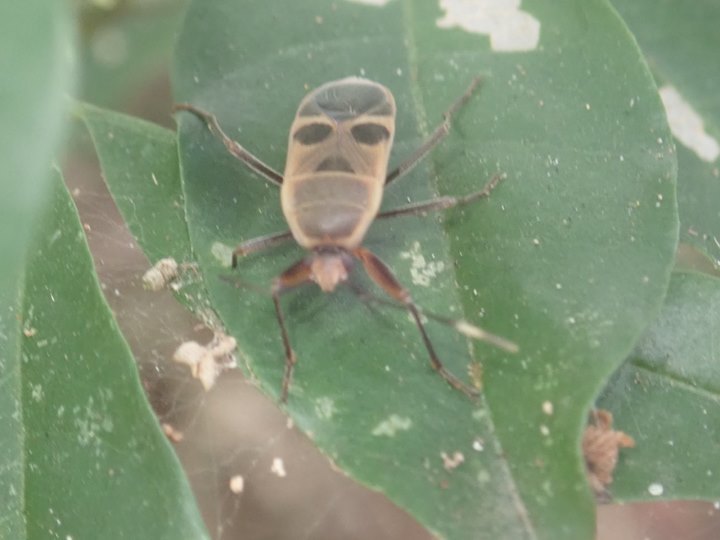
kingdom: Animalia
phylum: Arthropoda
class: Insecta
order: Hemiptera
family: Largidae
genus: Physopelta
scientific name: Physopelta gutta
